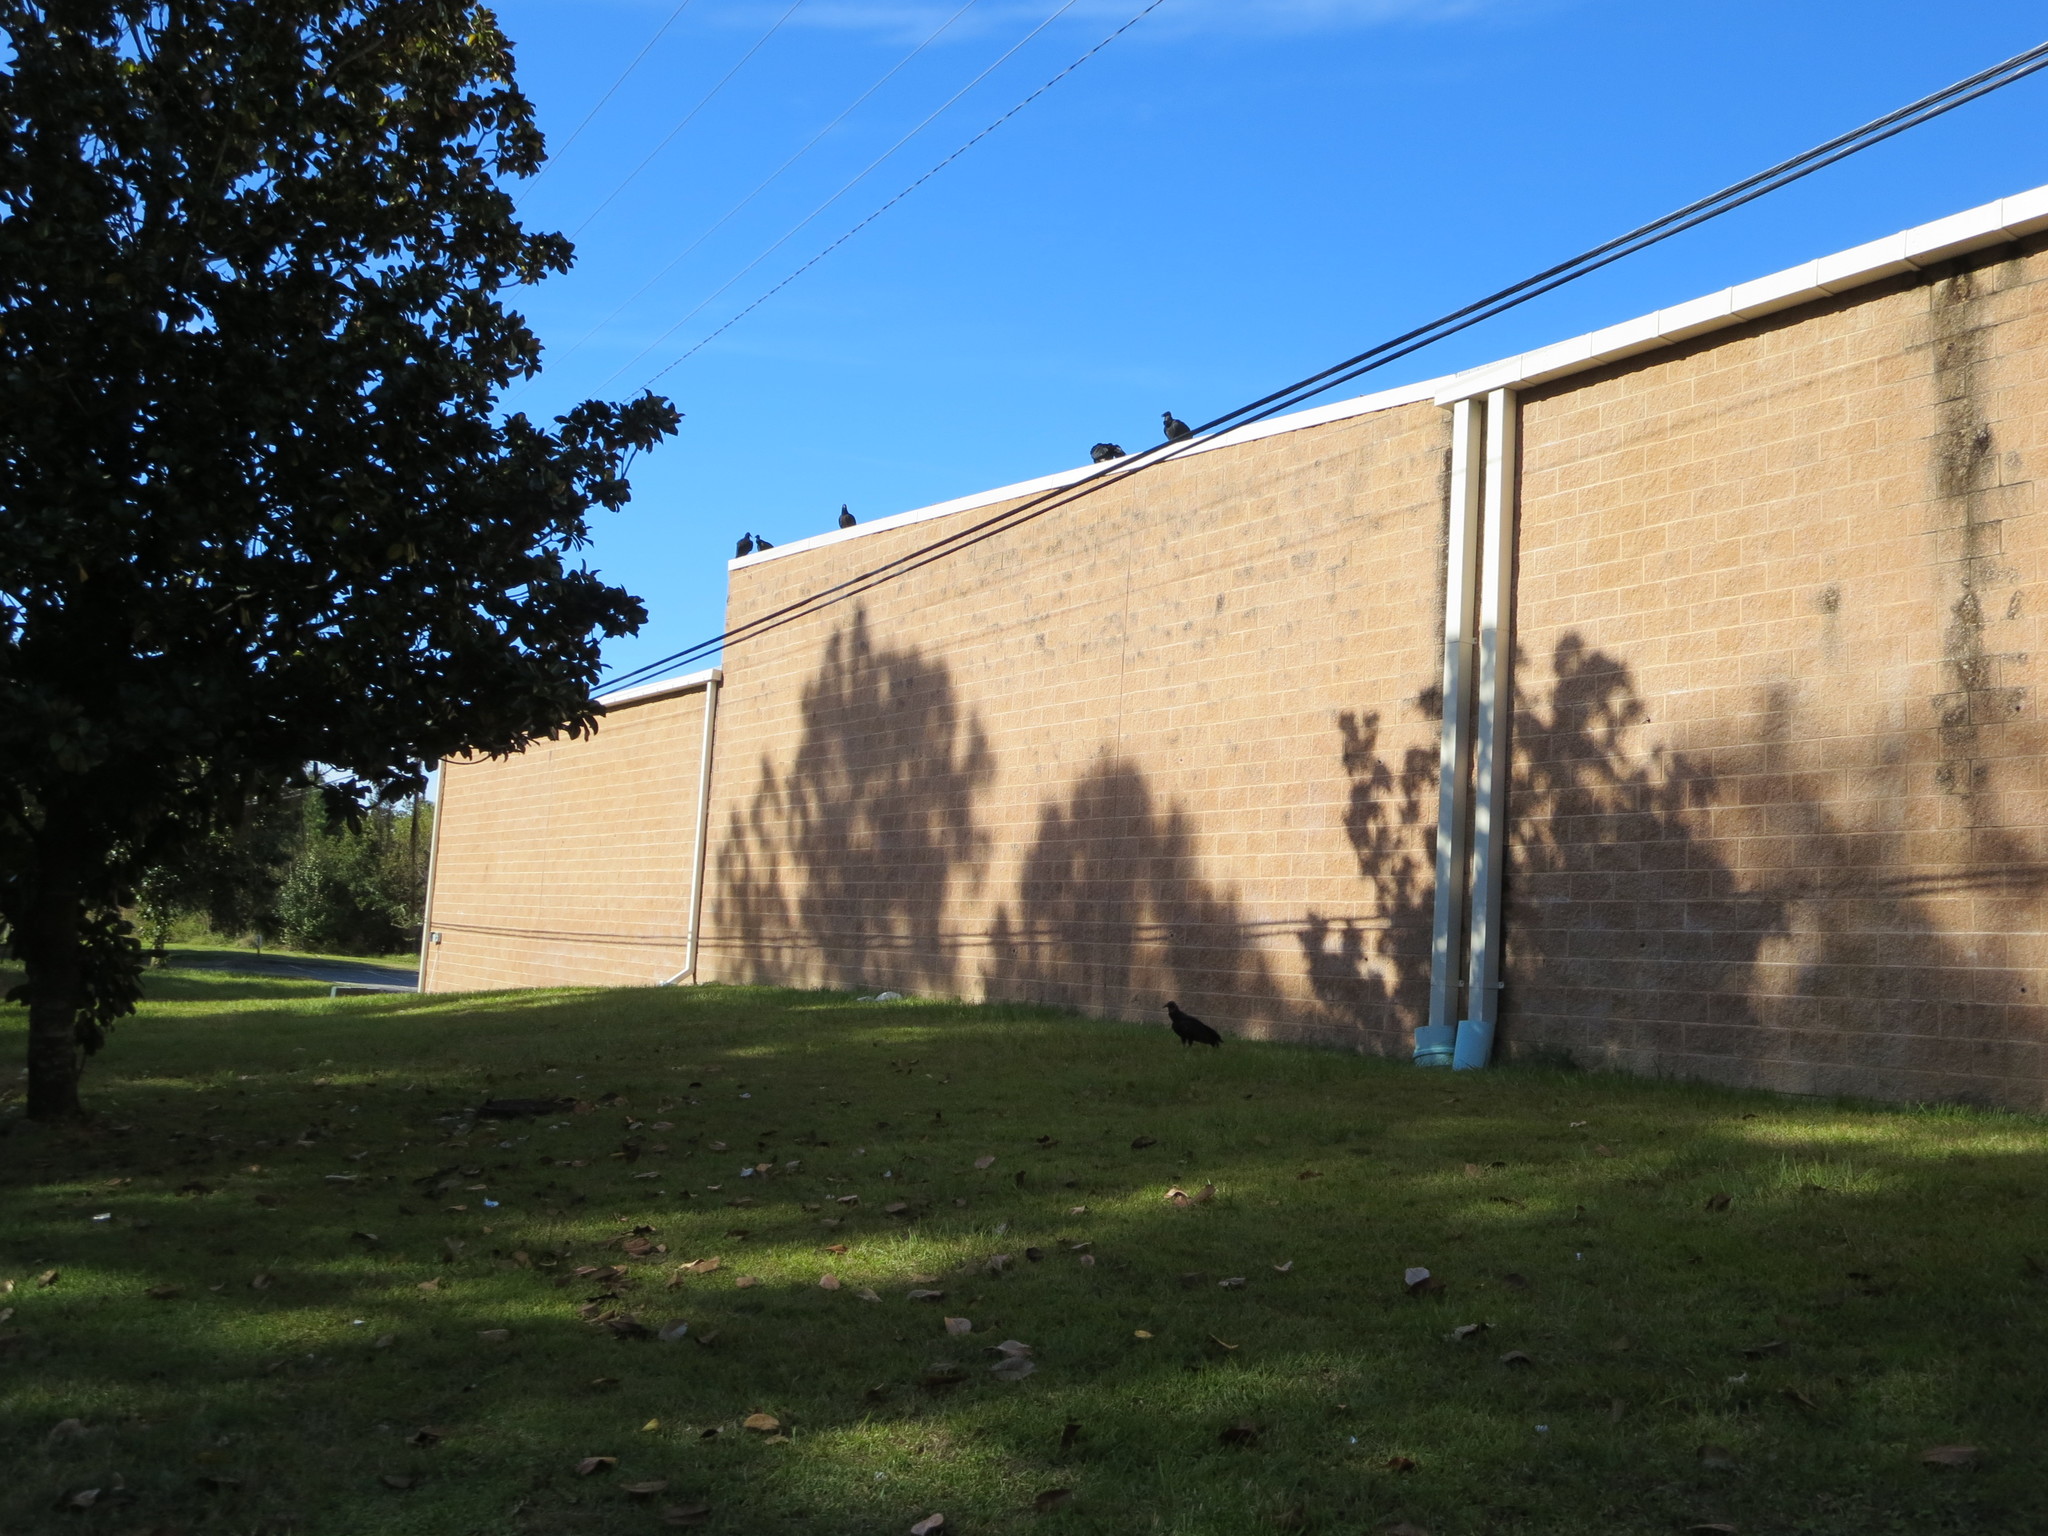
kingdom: Animalia
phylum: Chordata
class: Aves
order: Accipitriformes
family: Cathartidae
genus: Coragyps
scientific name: Coragyps atratus
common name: Black vulture
